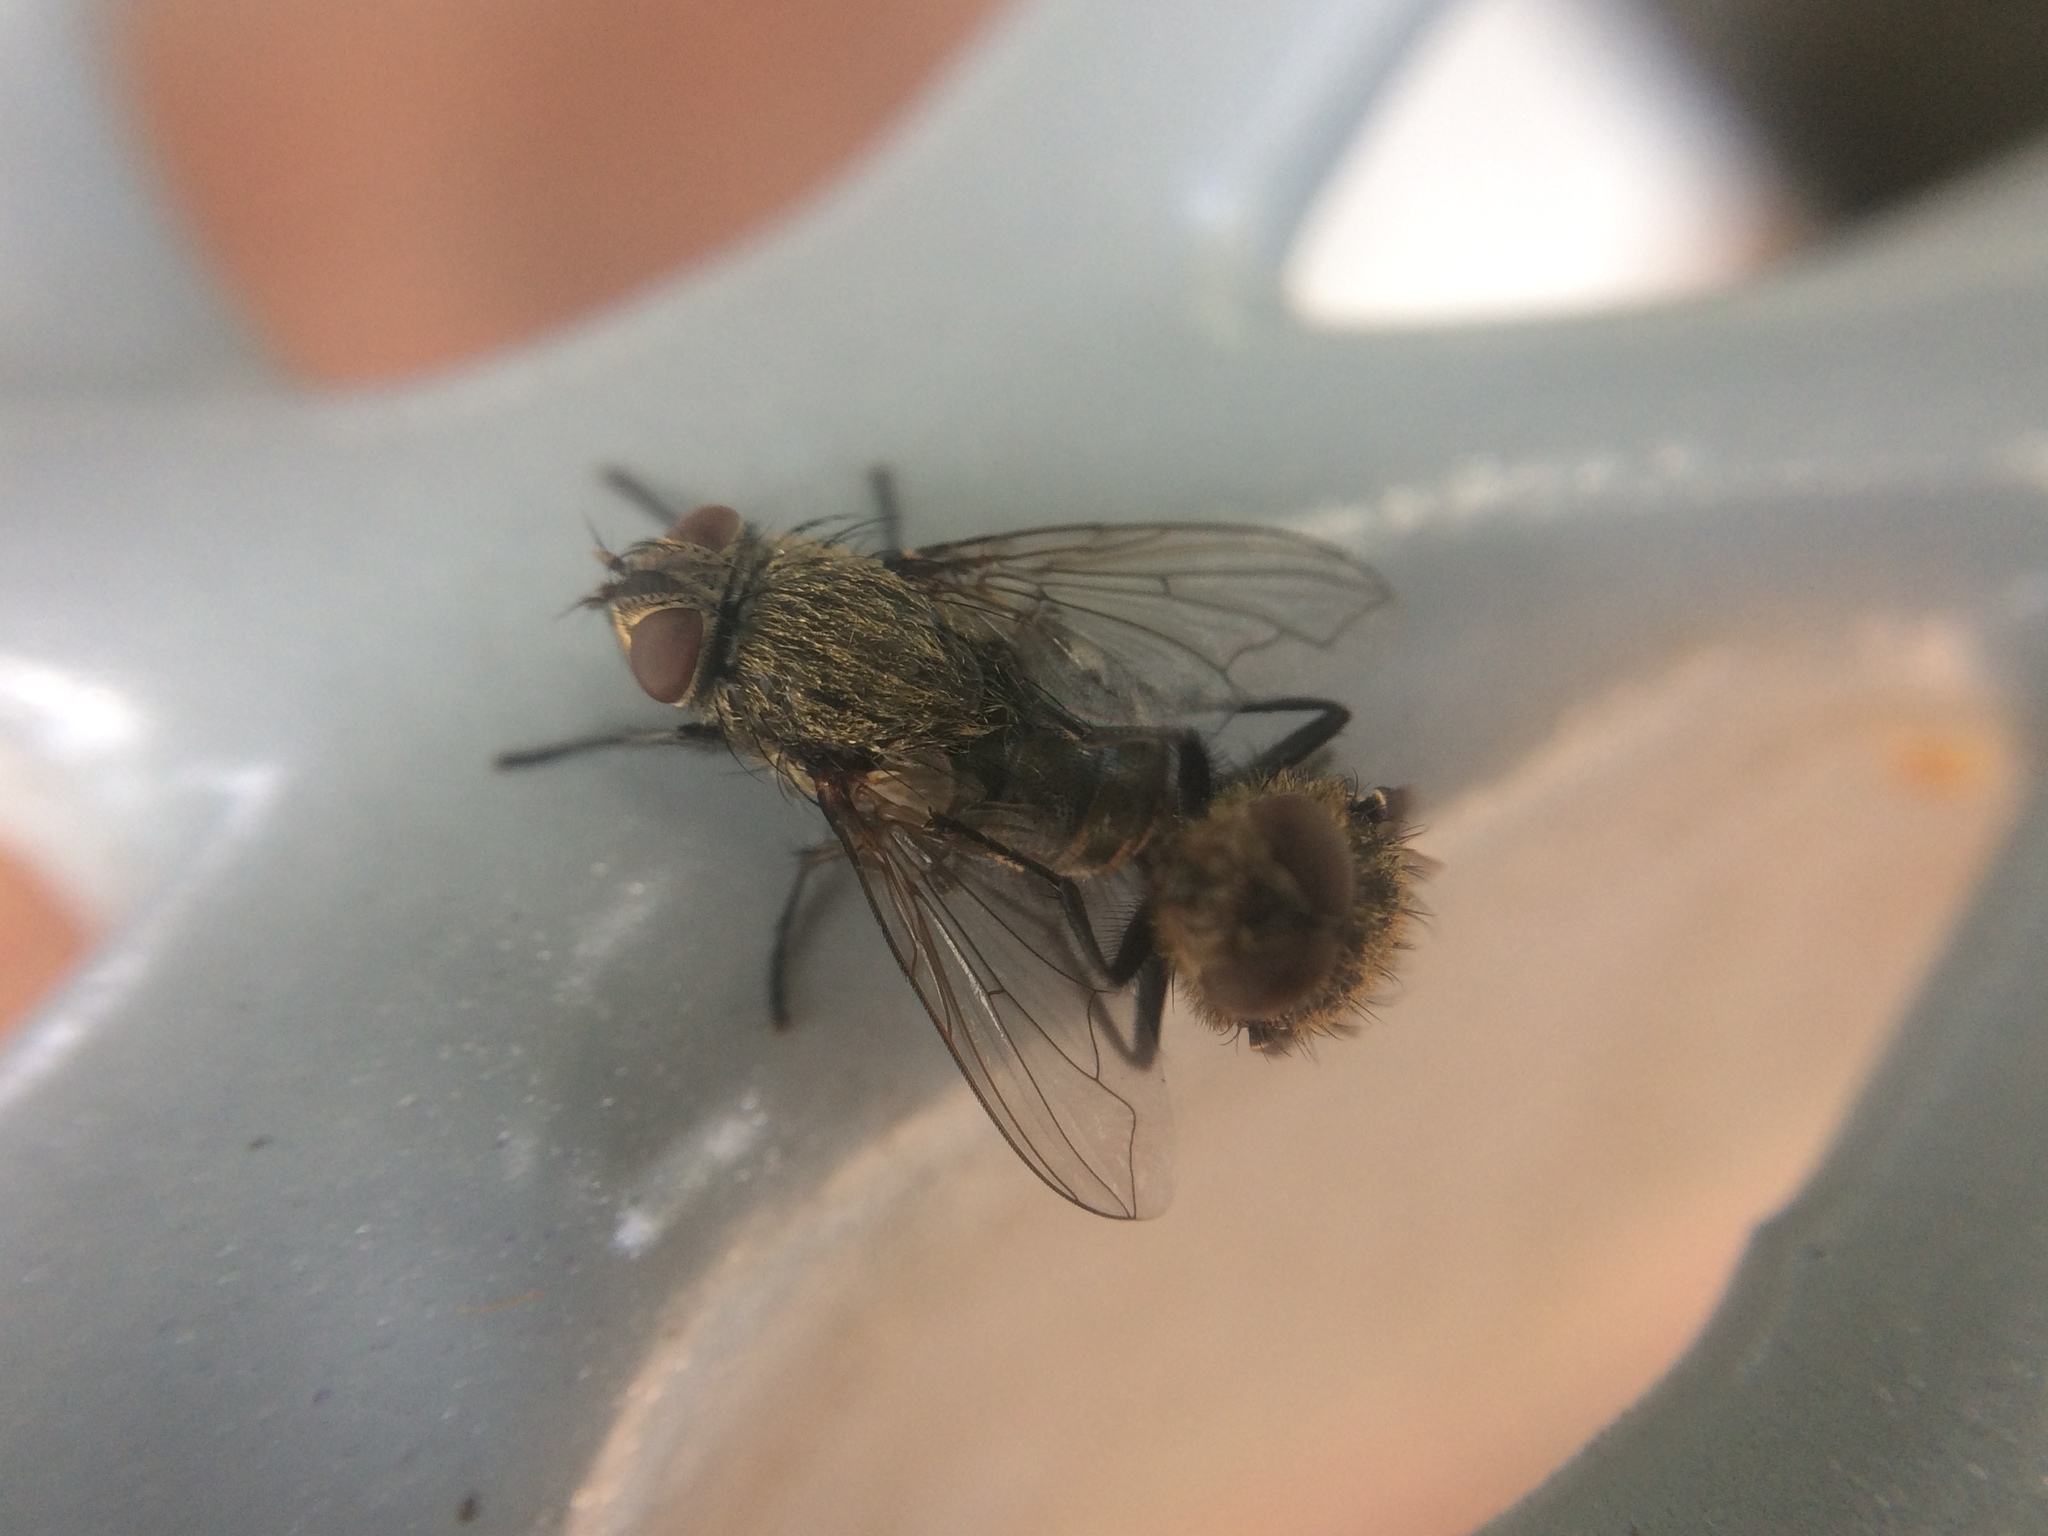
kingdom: Animalia
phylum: Arthropoda
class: Insecta
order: Diptera
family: Polleniidae
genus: Pollenia
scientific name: Pollenia
